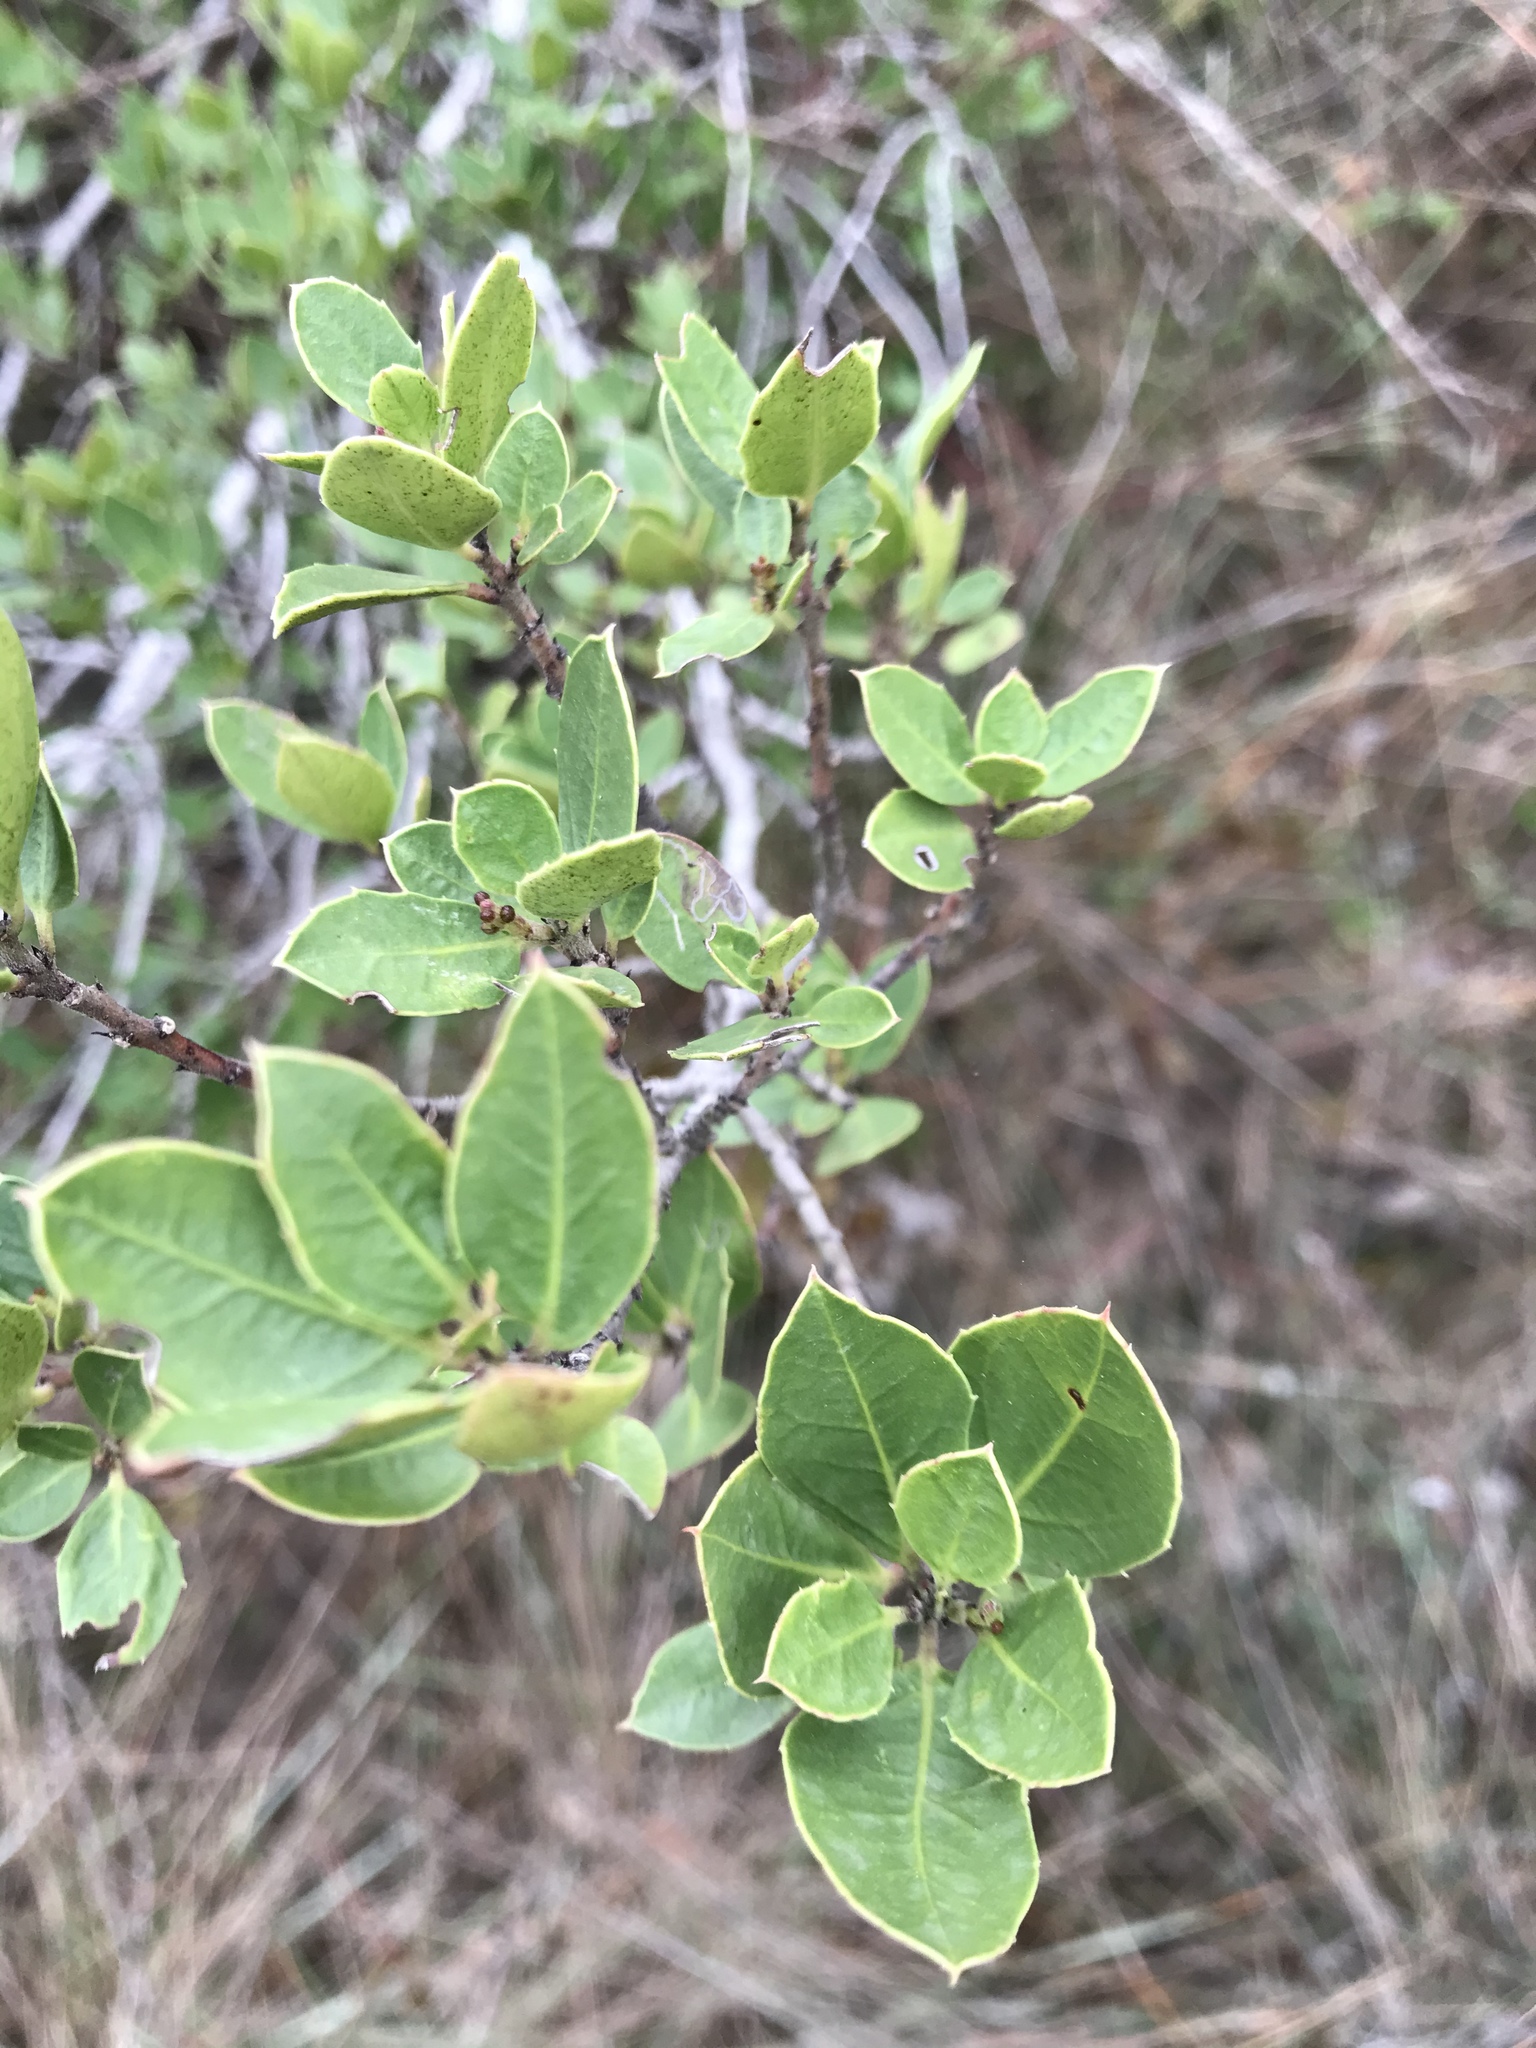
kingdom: Plantae
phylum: Tracheophyta
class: Magnoliopsida
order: Rosales
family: Rhamnaceae
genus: Rhamnus
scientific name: Rhamnus alaternus
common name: Mediterranean buckthorn
